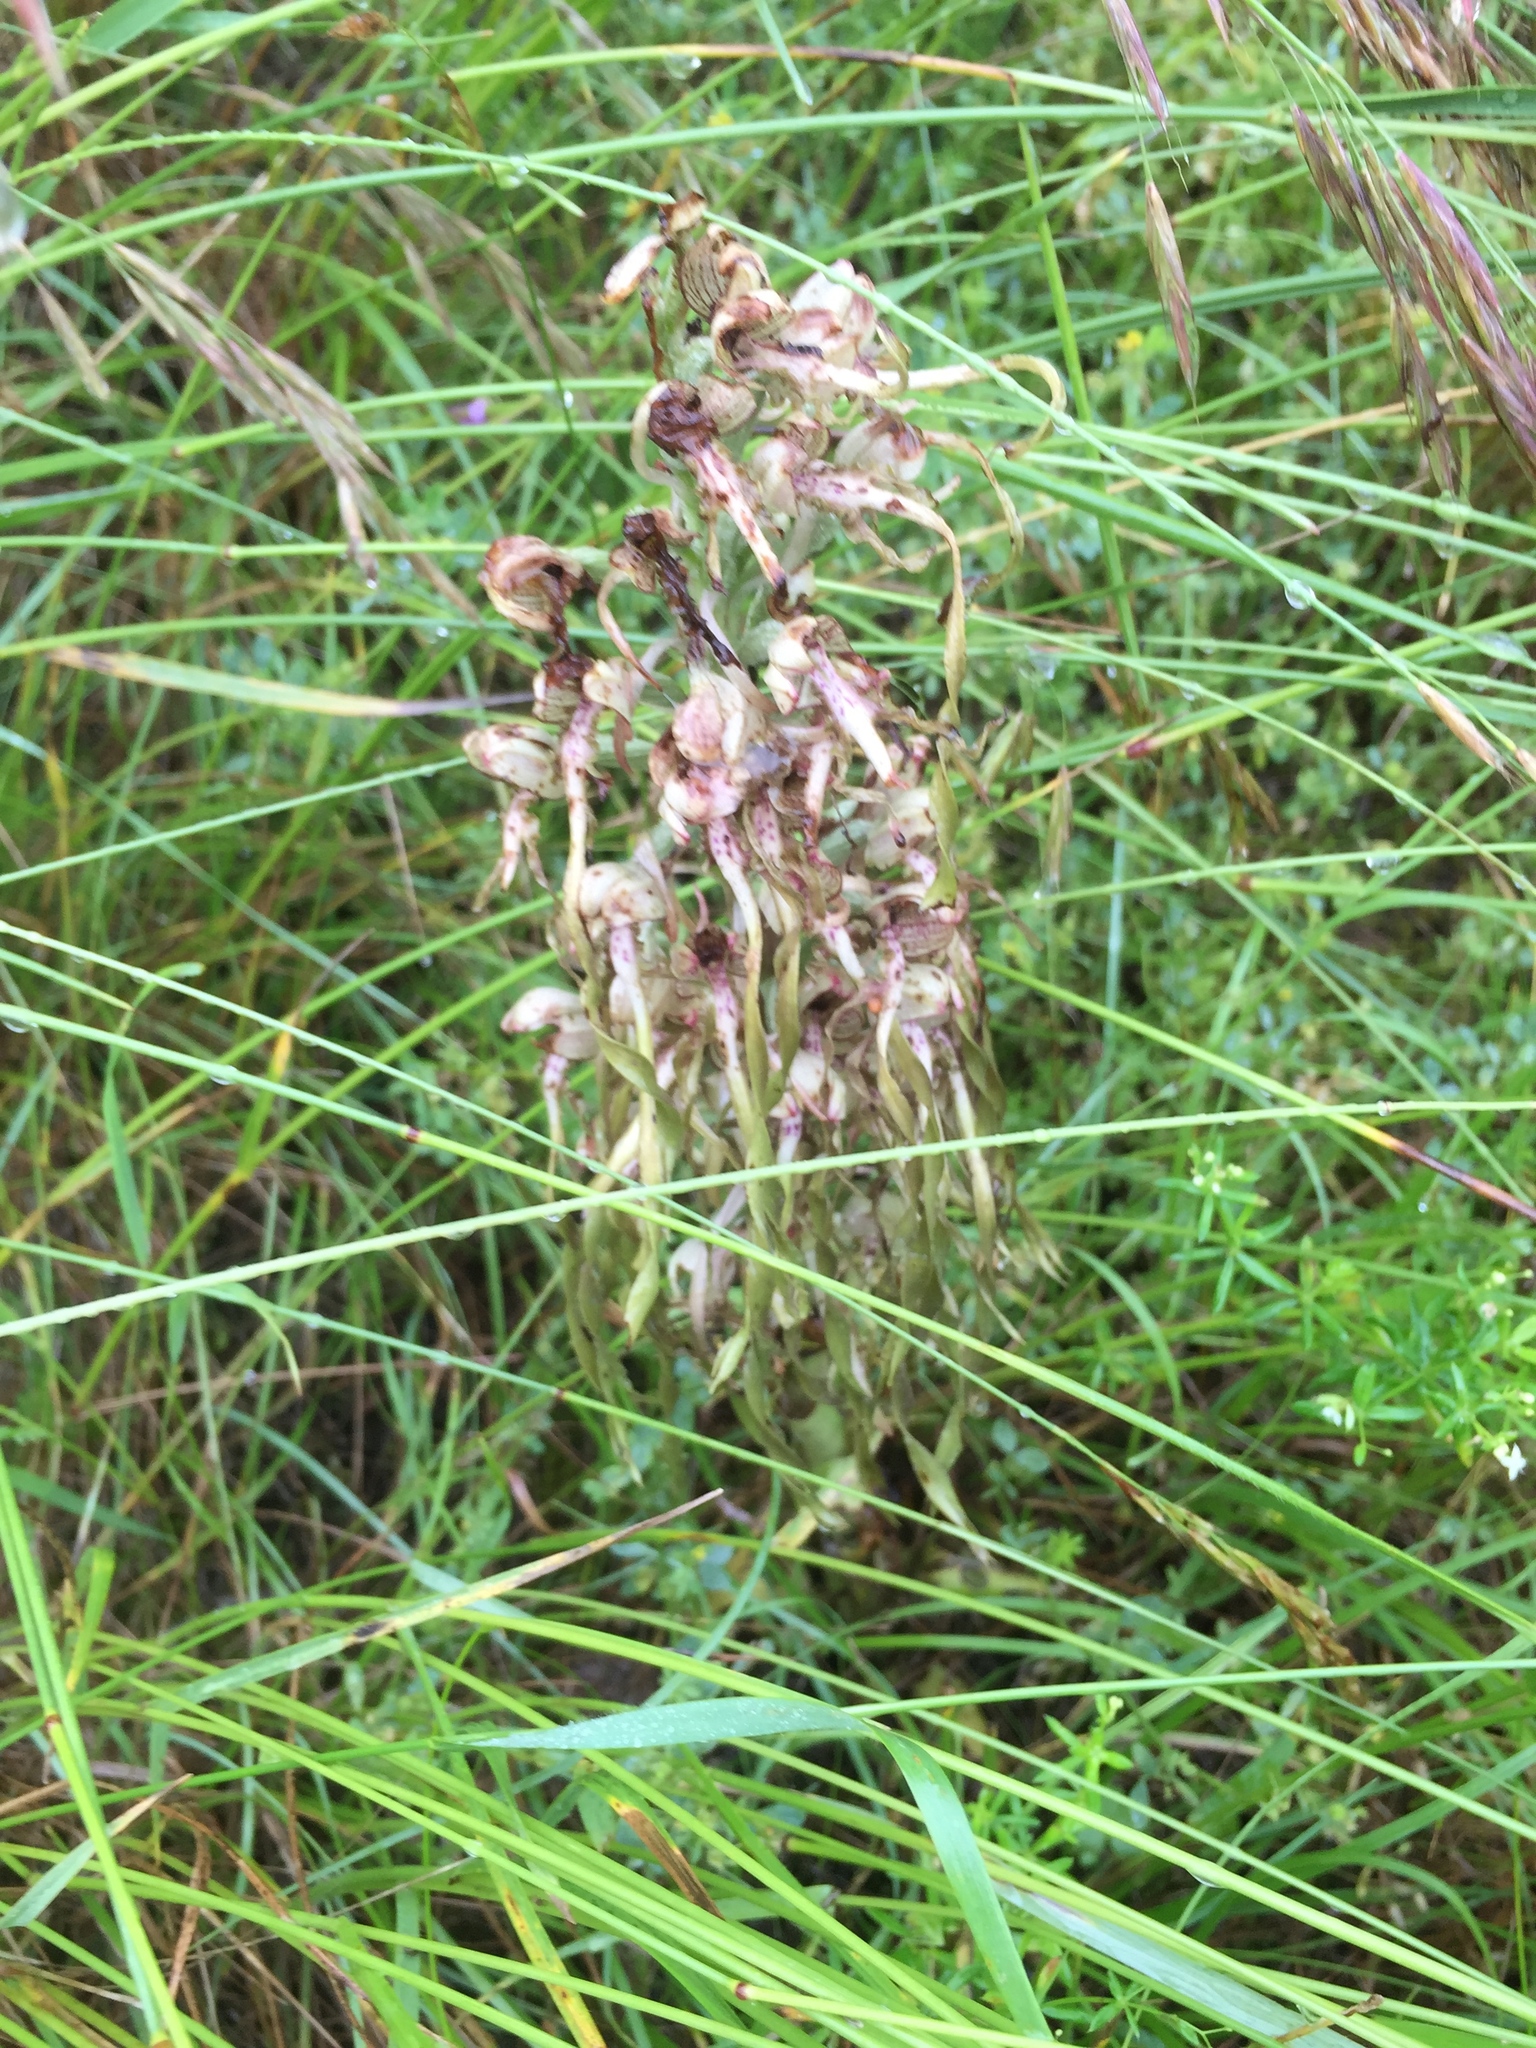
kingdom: Plantae
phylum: Tracheophyta
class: Liliopsida
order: Asparagales
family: Orchidaceae
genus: Himantoglossum
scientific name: Himantoglossum hircinum
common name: Lizard orchid
